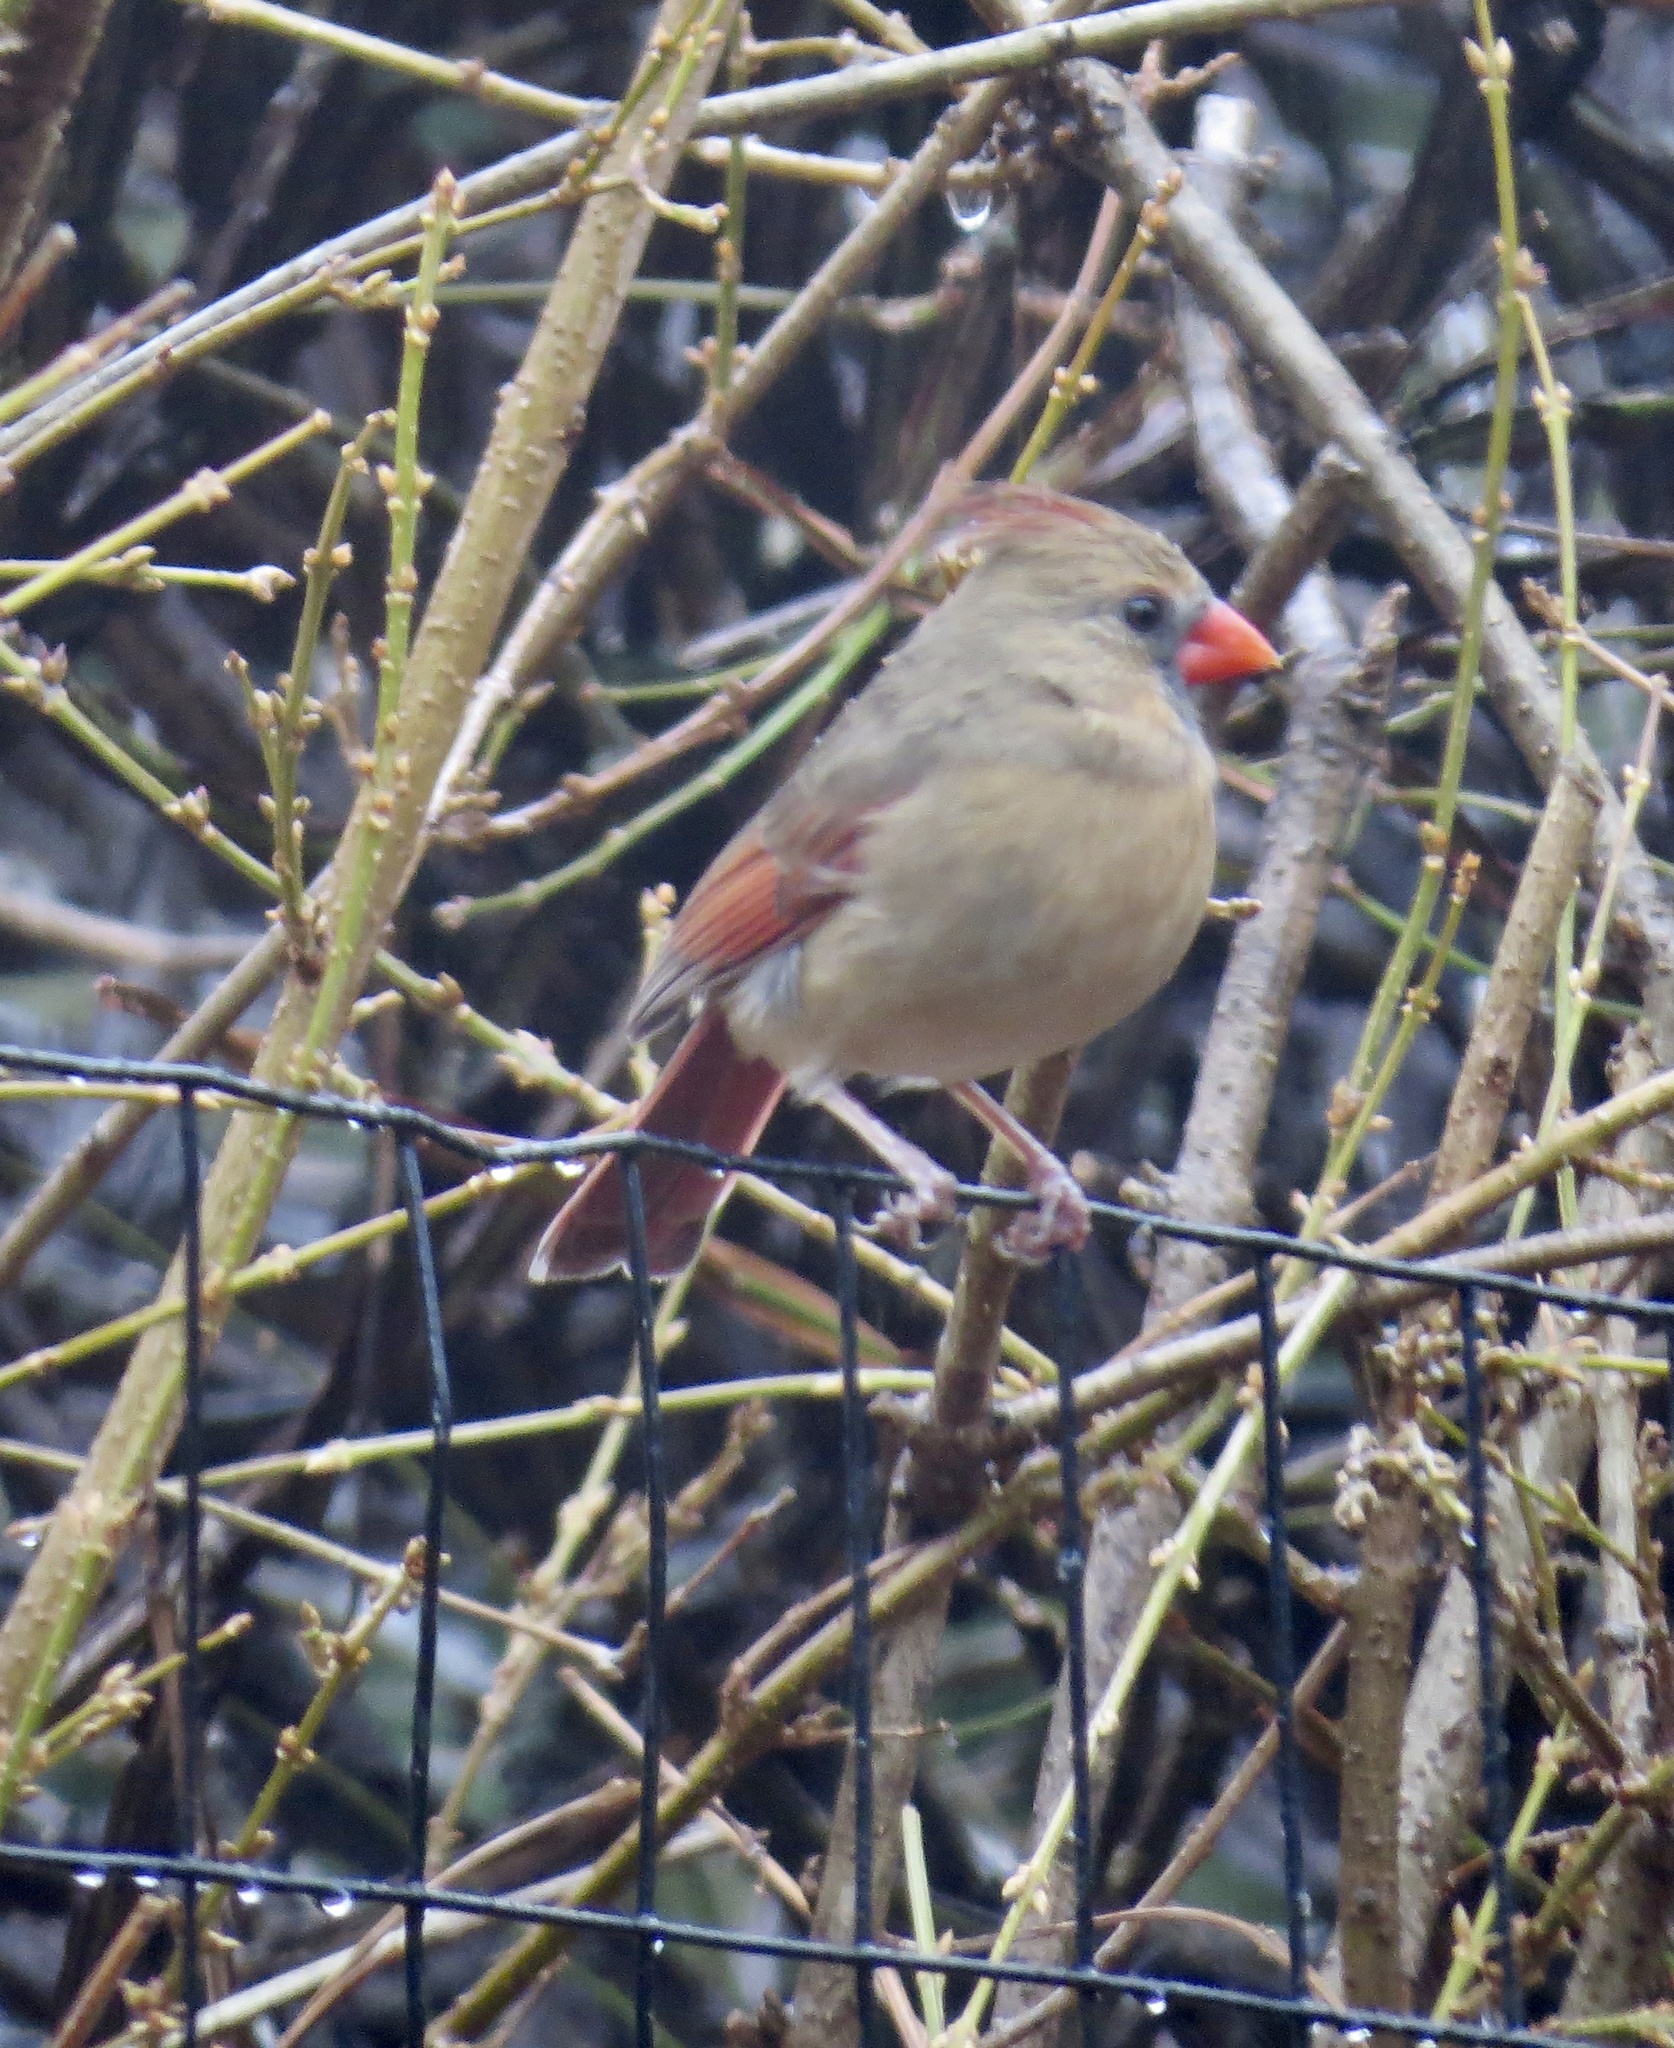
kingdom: Animalia
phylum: Chordata
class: Aves
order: Passeriformes
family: Cardinalidae
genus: Cardinalis
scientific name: Cardinalis cardinalis
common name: Northern cardinal
